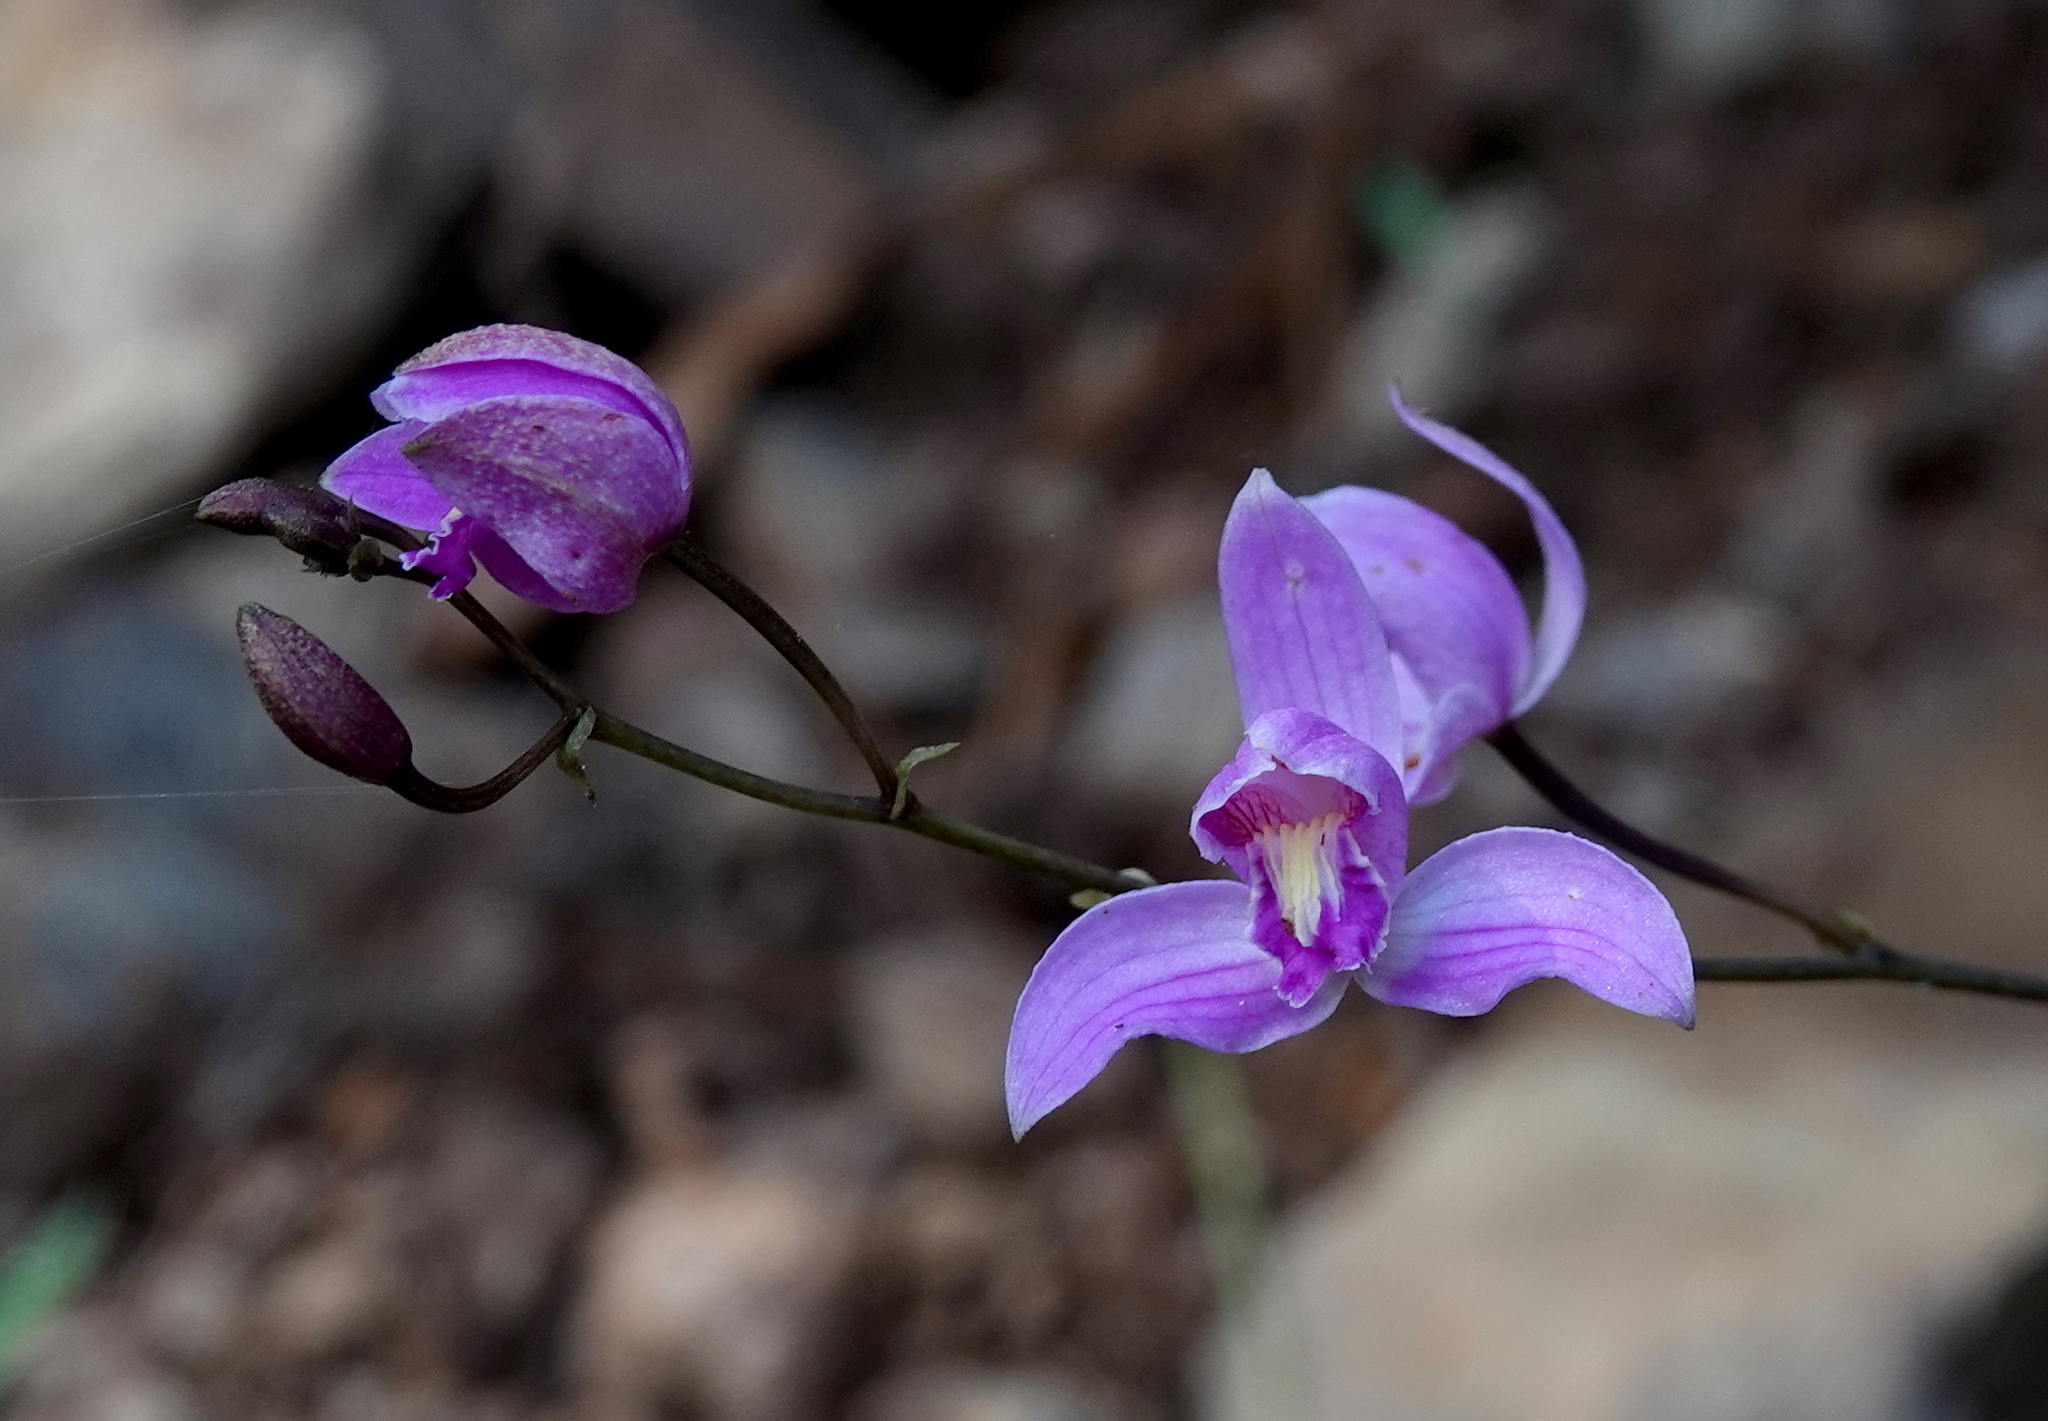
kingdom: Plantae
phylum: Tracheophyta
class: Liliopsida
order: Asparagales
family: Orchidaceae
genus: Bletia
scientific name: Bletia purpurea
